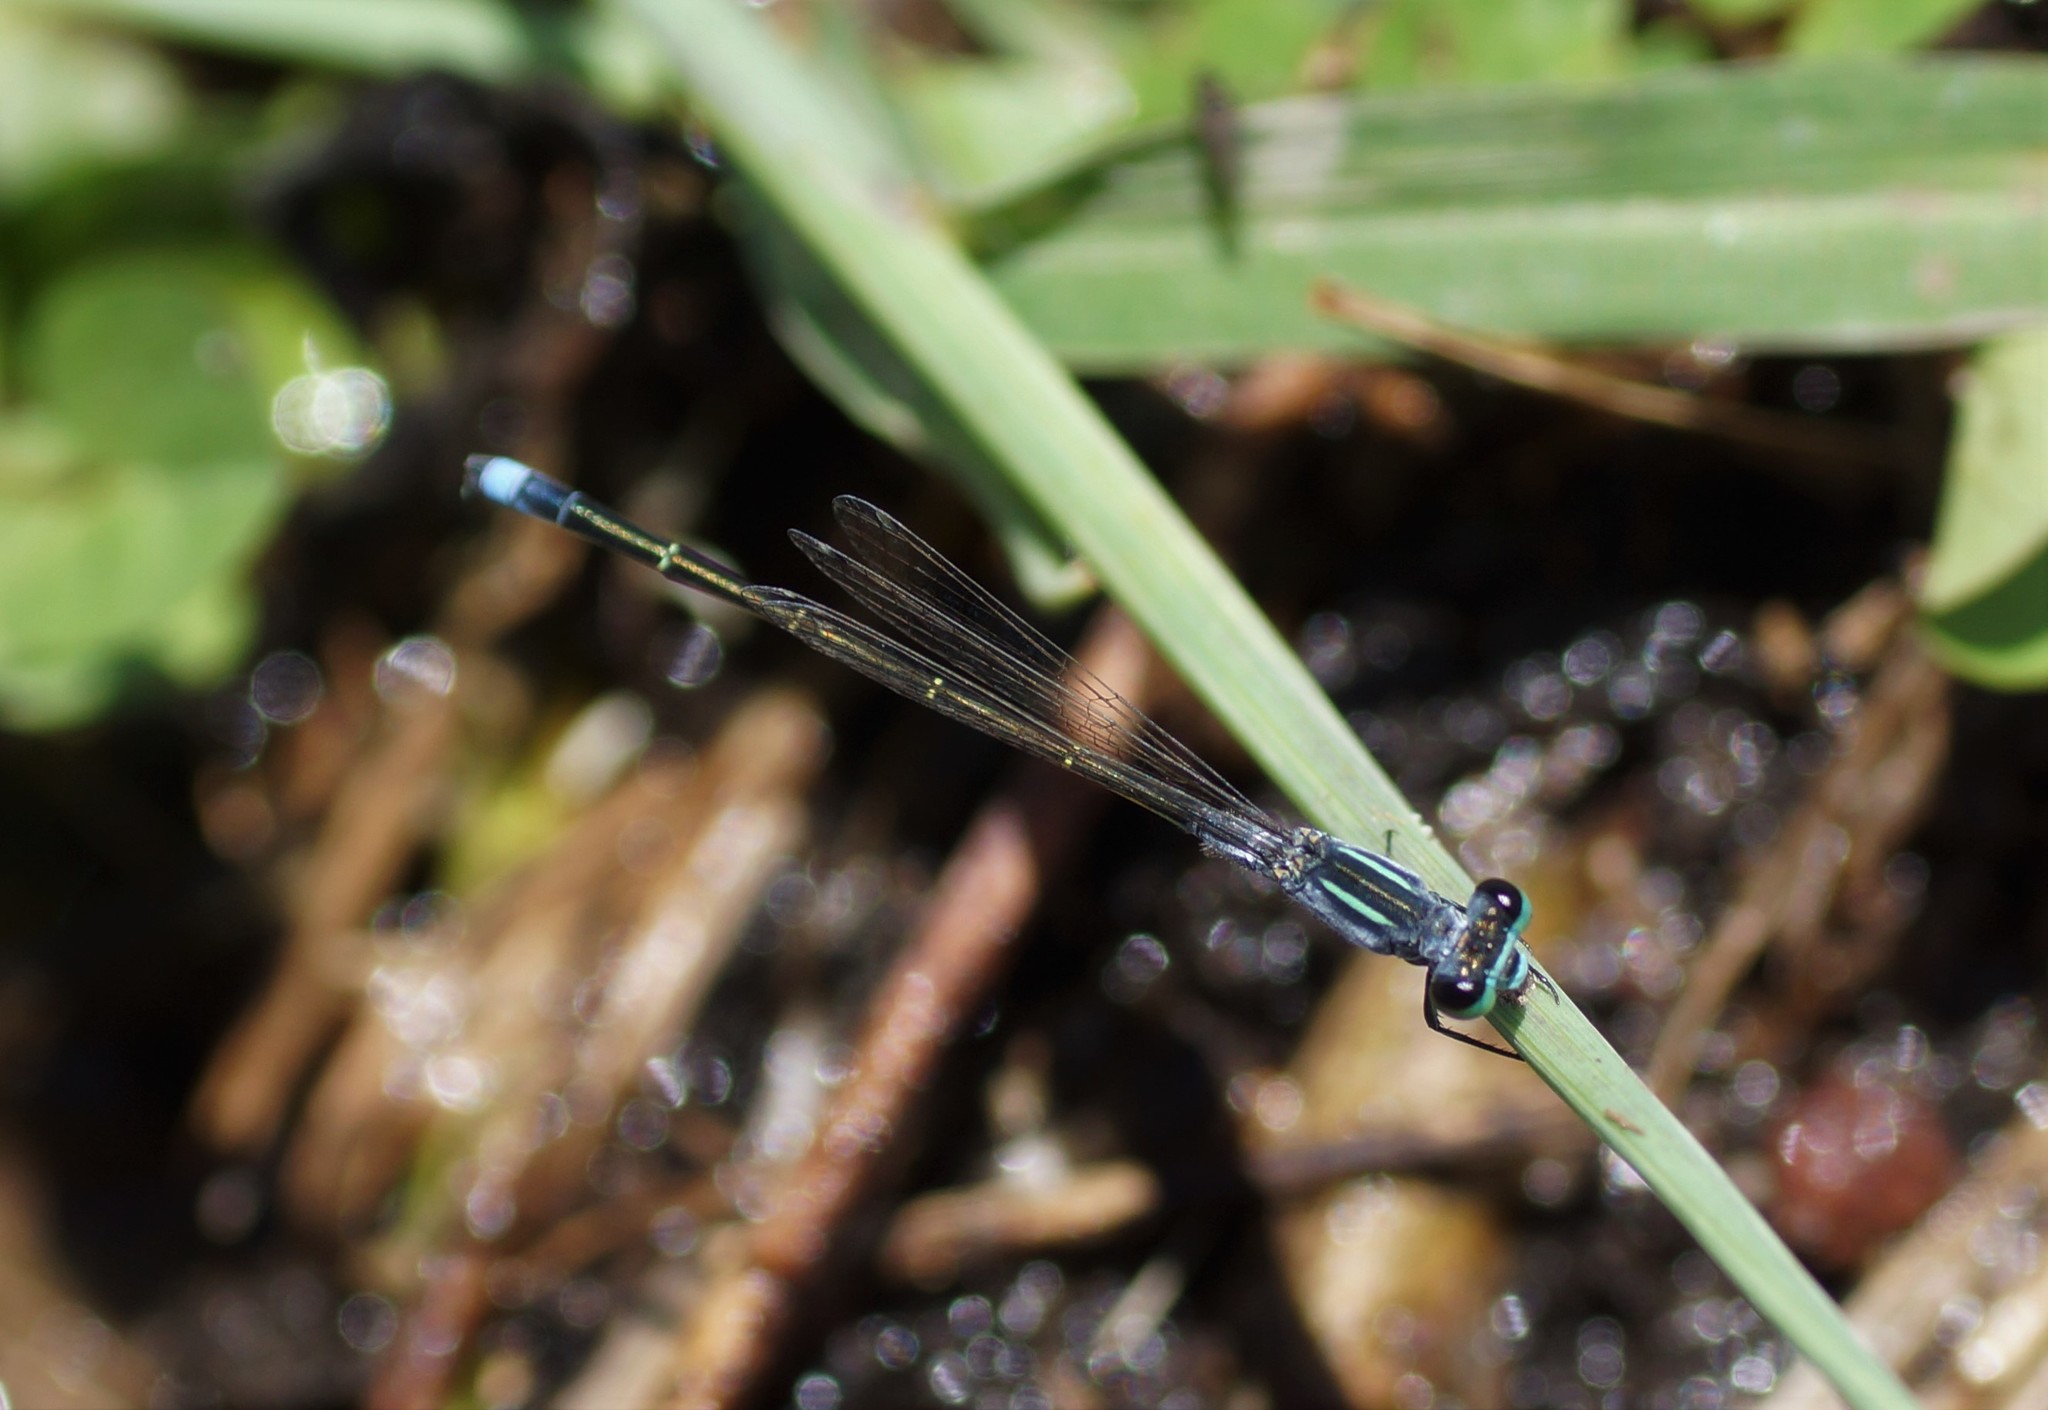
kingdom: Animalia
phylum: Arthropoda
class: Insecta
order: Odonata
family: Coenagrionidae
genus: Ischnura
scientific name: Ischnura pruinescens
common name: Colourful bluetail
